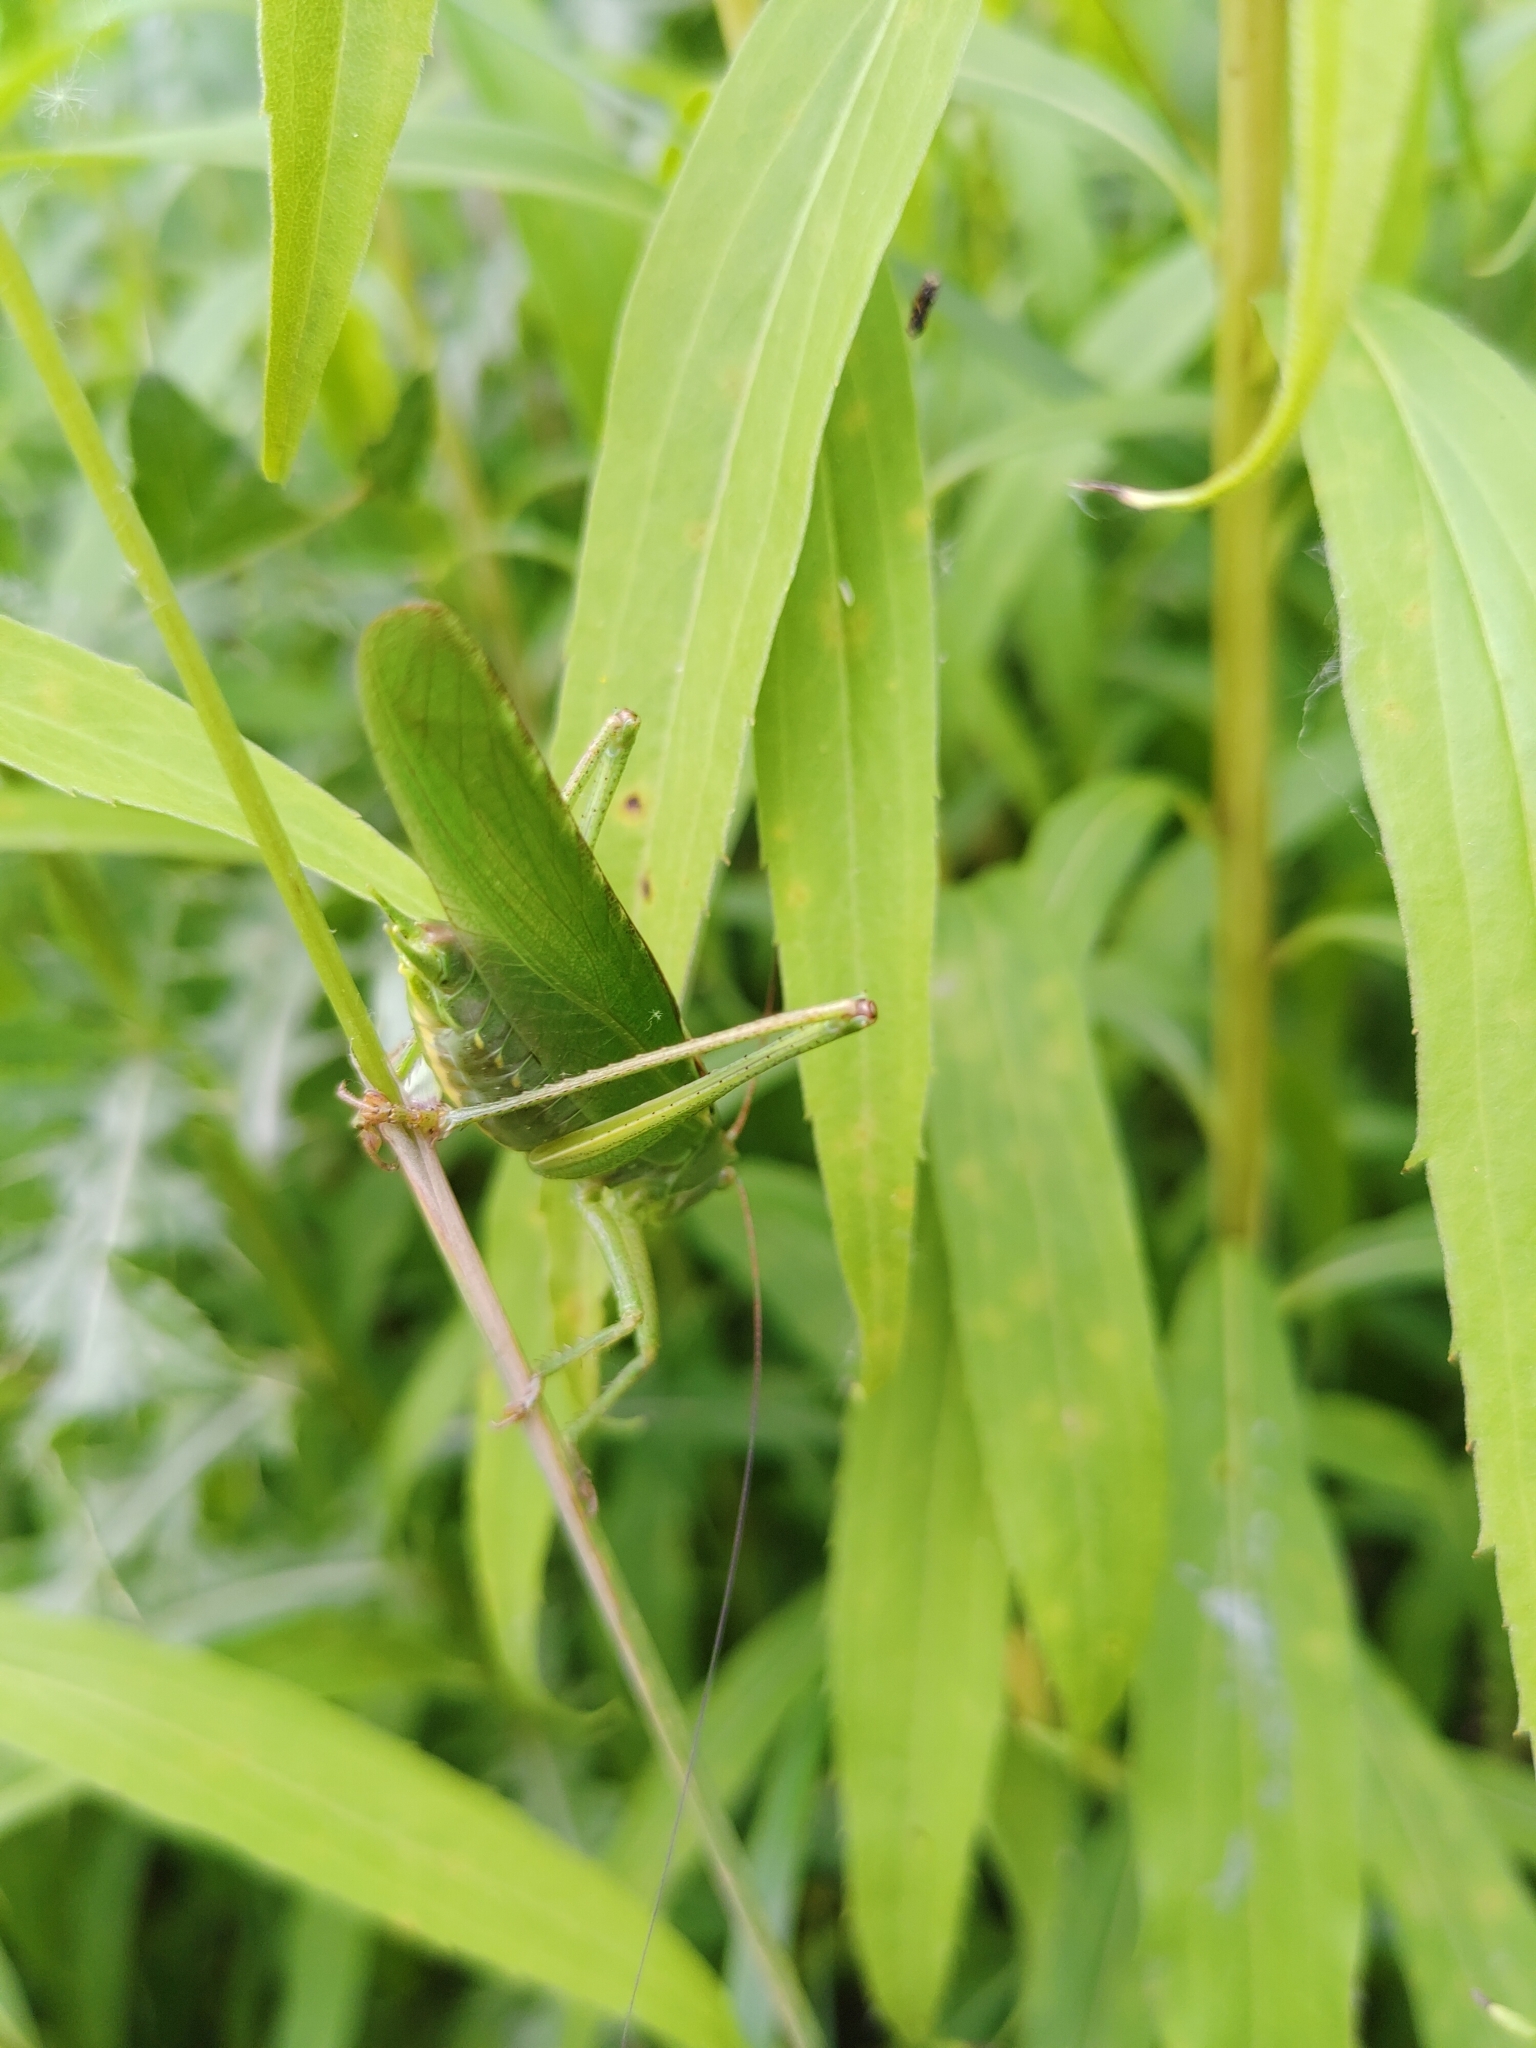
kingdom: Animalia
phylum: Arthropoda
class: Insecta
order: Orthoptera
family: Tettigoniidae
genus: Tettigonia
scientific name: Tettigonia viridissima
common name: Great green bush-cricket
